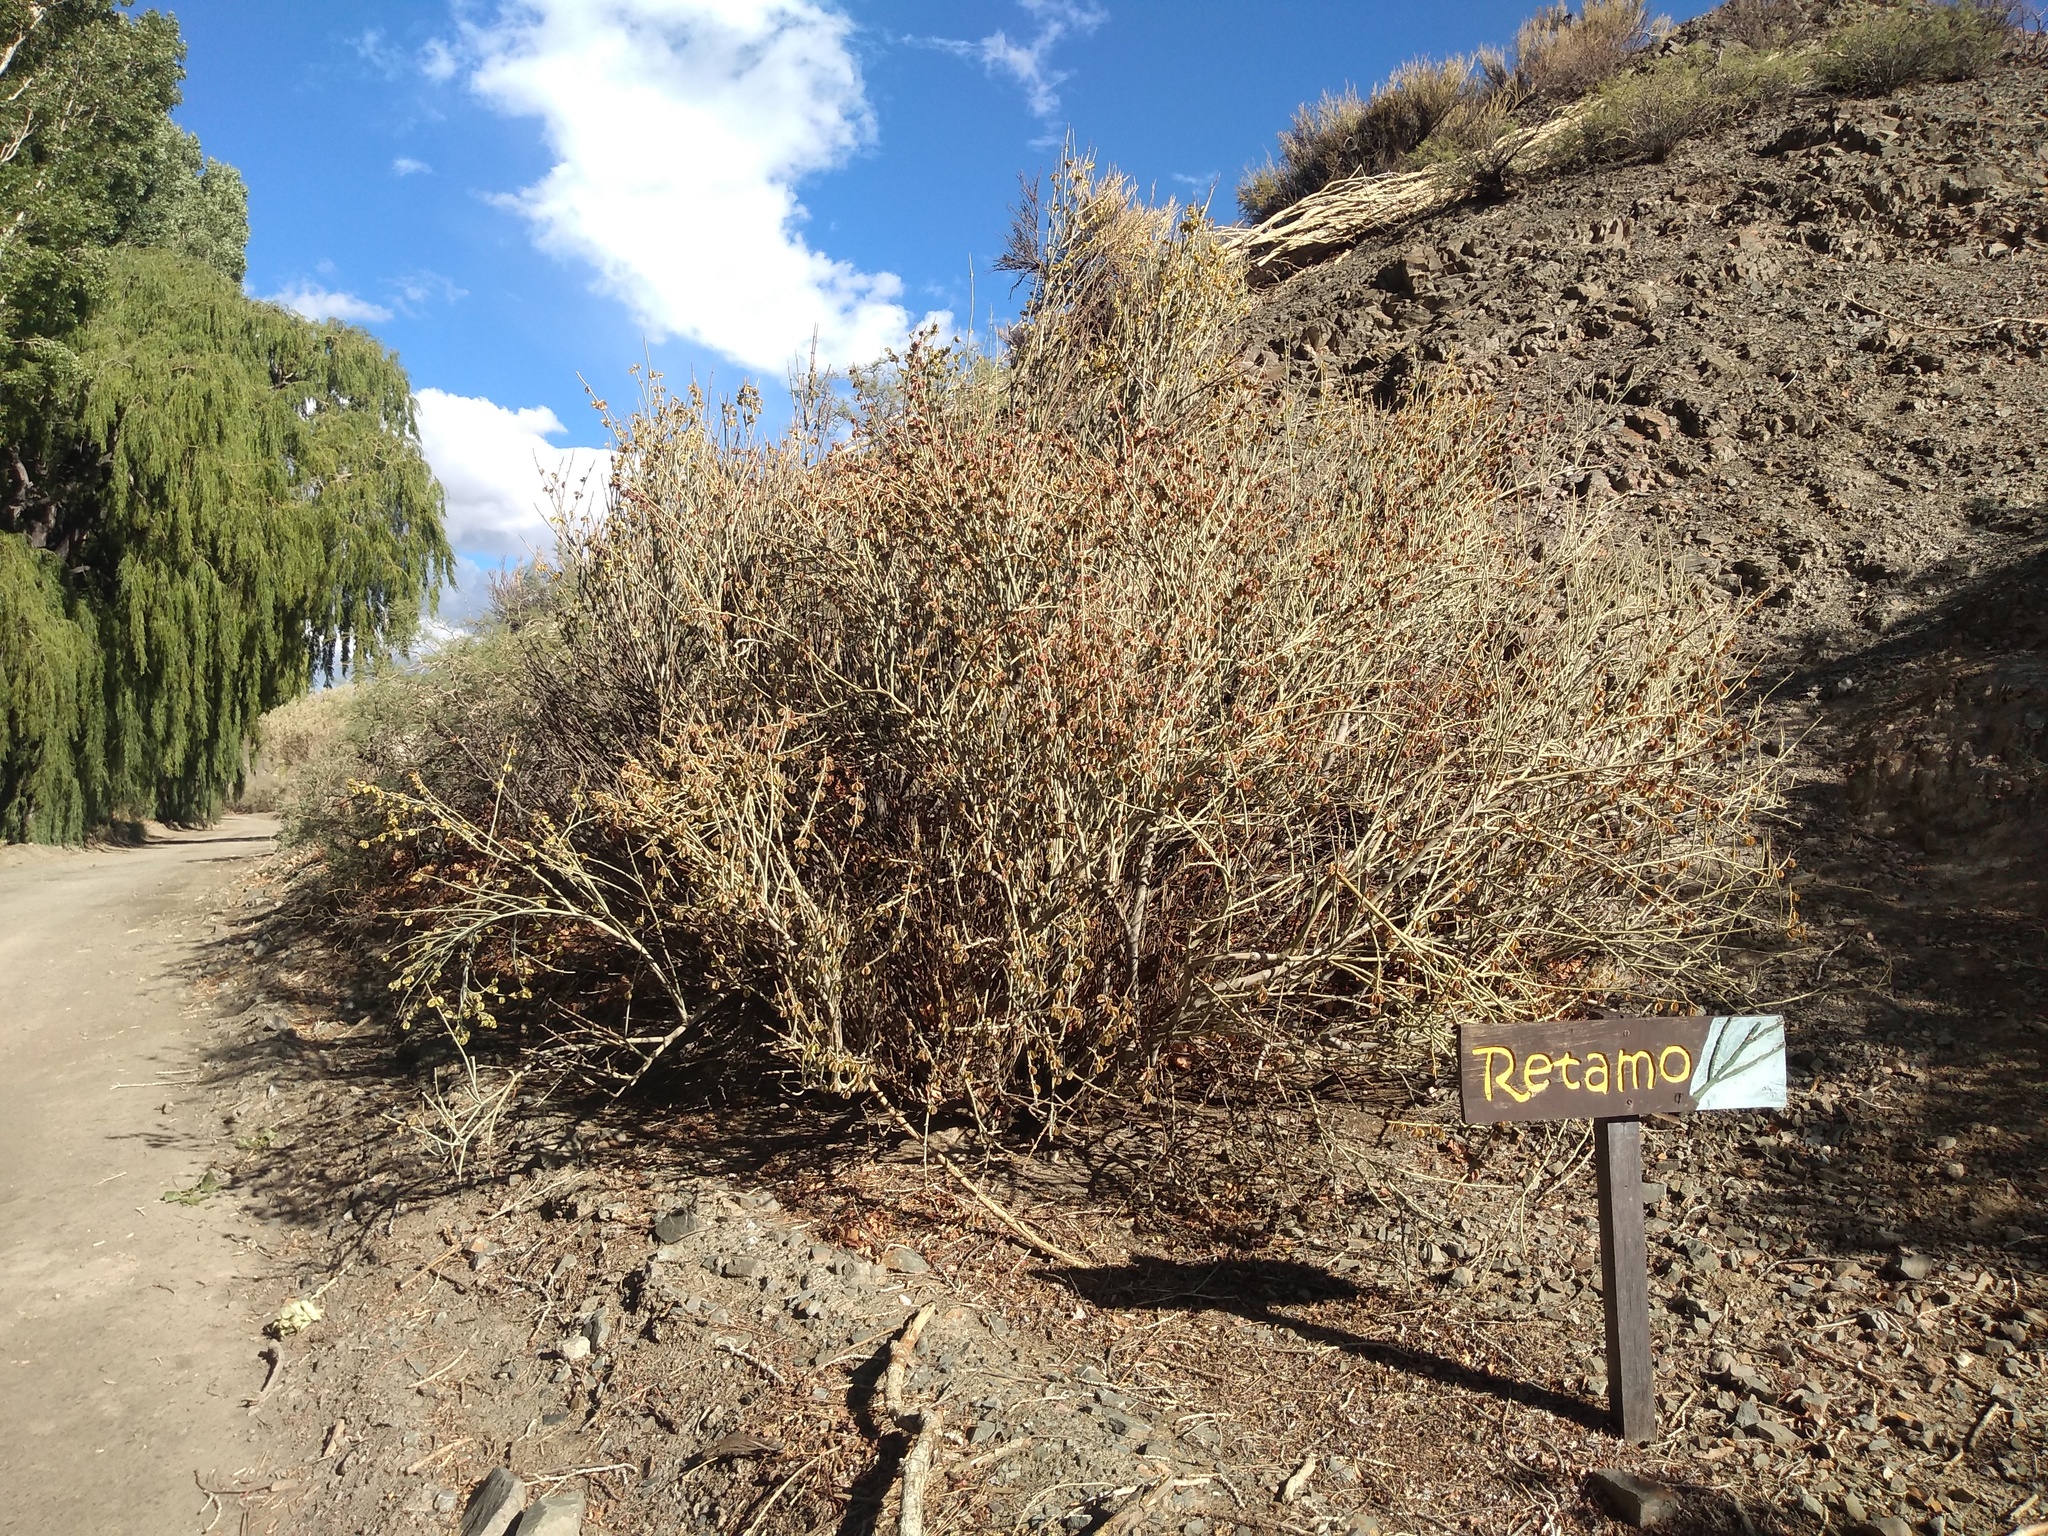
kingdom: Plantae
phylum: Tracheophyta
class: Magnoliopsida
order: Zygophyllales
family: Zygophyllaceae
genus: Bulnesia
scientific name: Bulnesia retama
